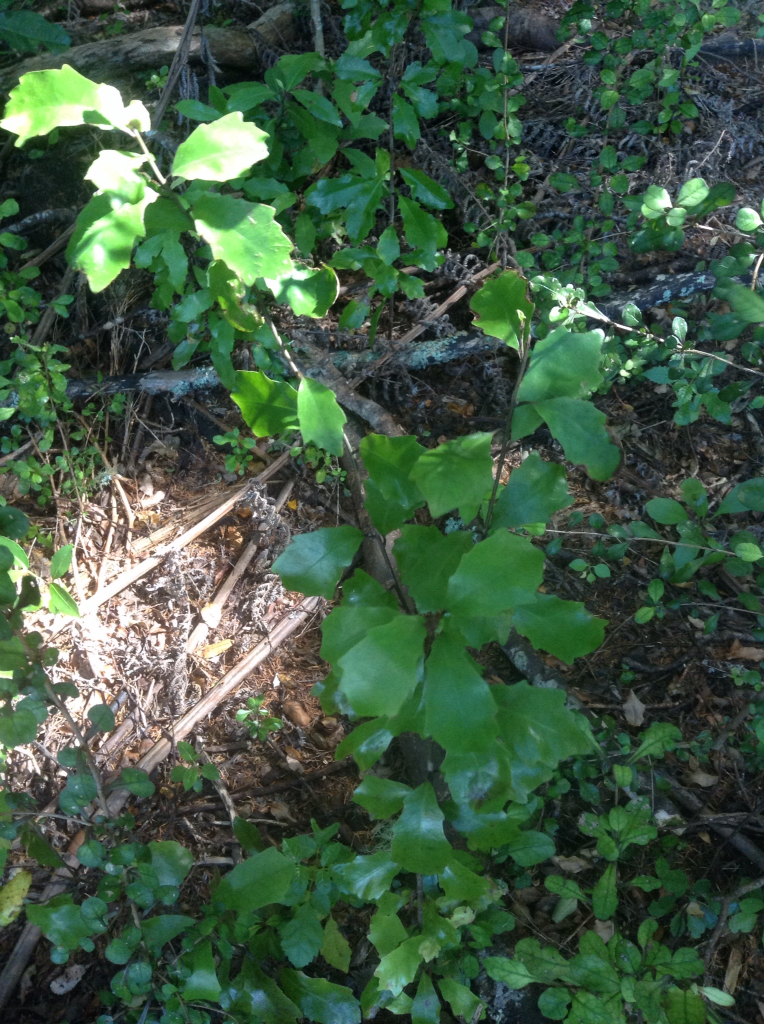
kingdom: Plantae
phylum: Tracheophyta
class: Magnoliopsida
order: Asterales
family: Alseuosmiaceae
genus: Alseuosmia
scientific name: Alseuosmia banksii
